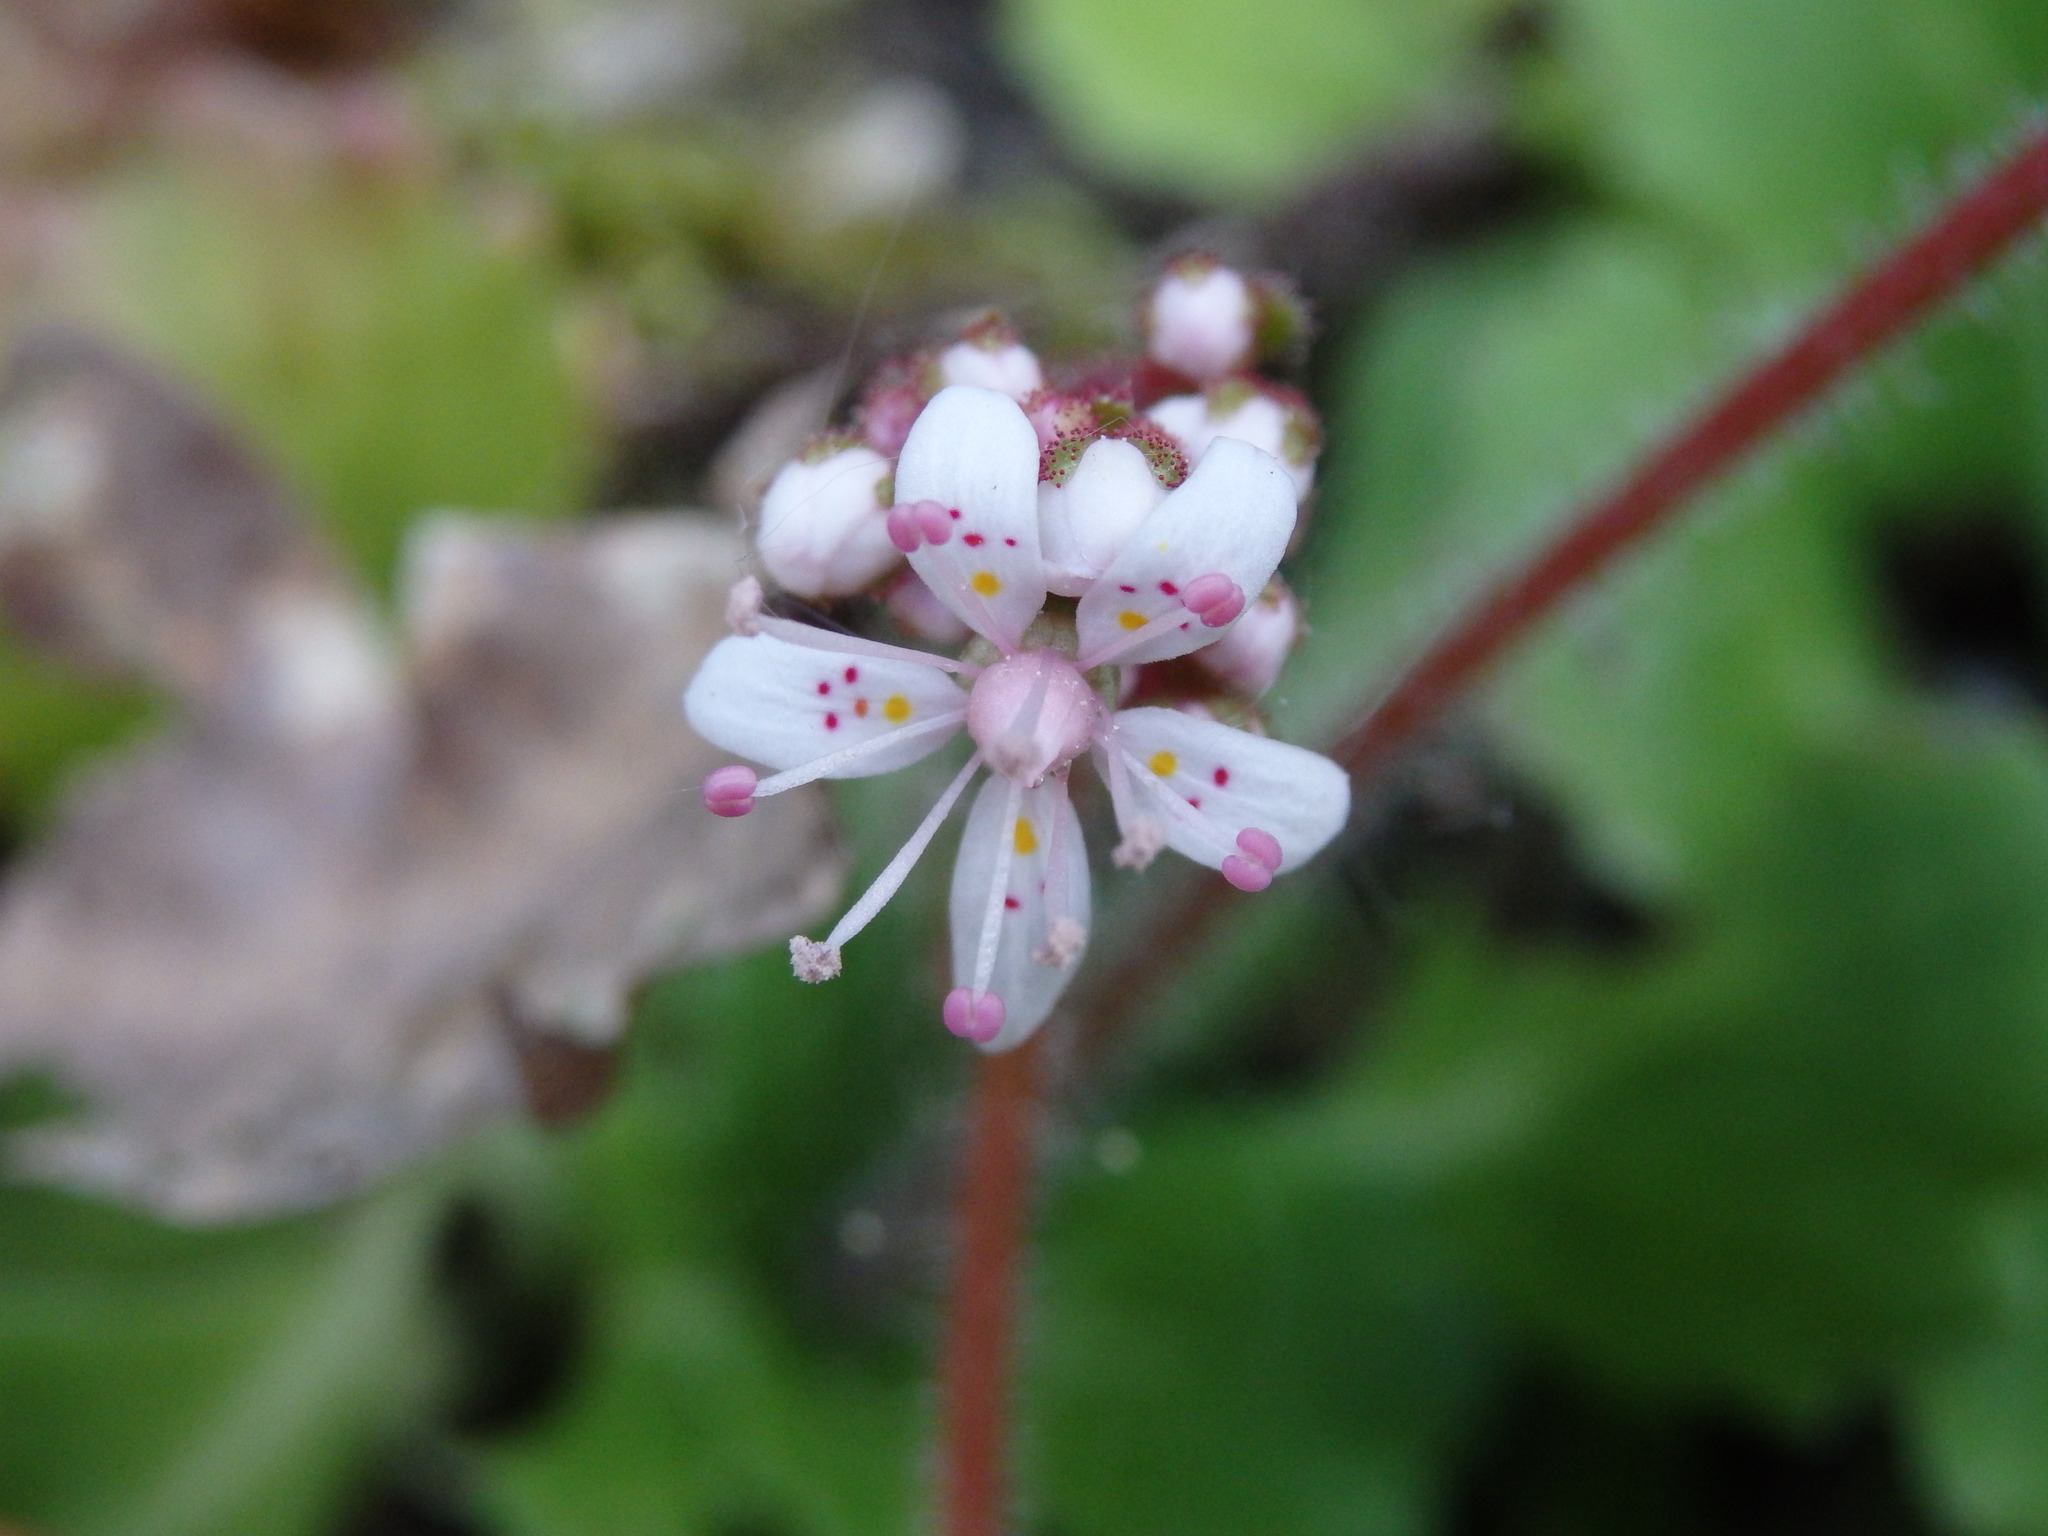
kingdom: Plantae
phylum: Tracheophyta
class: Magnoliopsida
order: Saxifragales
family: Saxifragaceae
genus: Saxifraga
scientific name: Saxifraga spathularis
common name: St patrick's-cabbage
